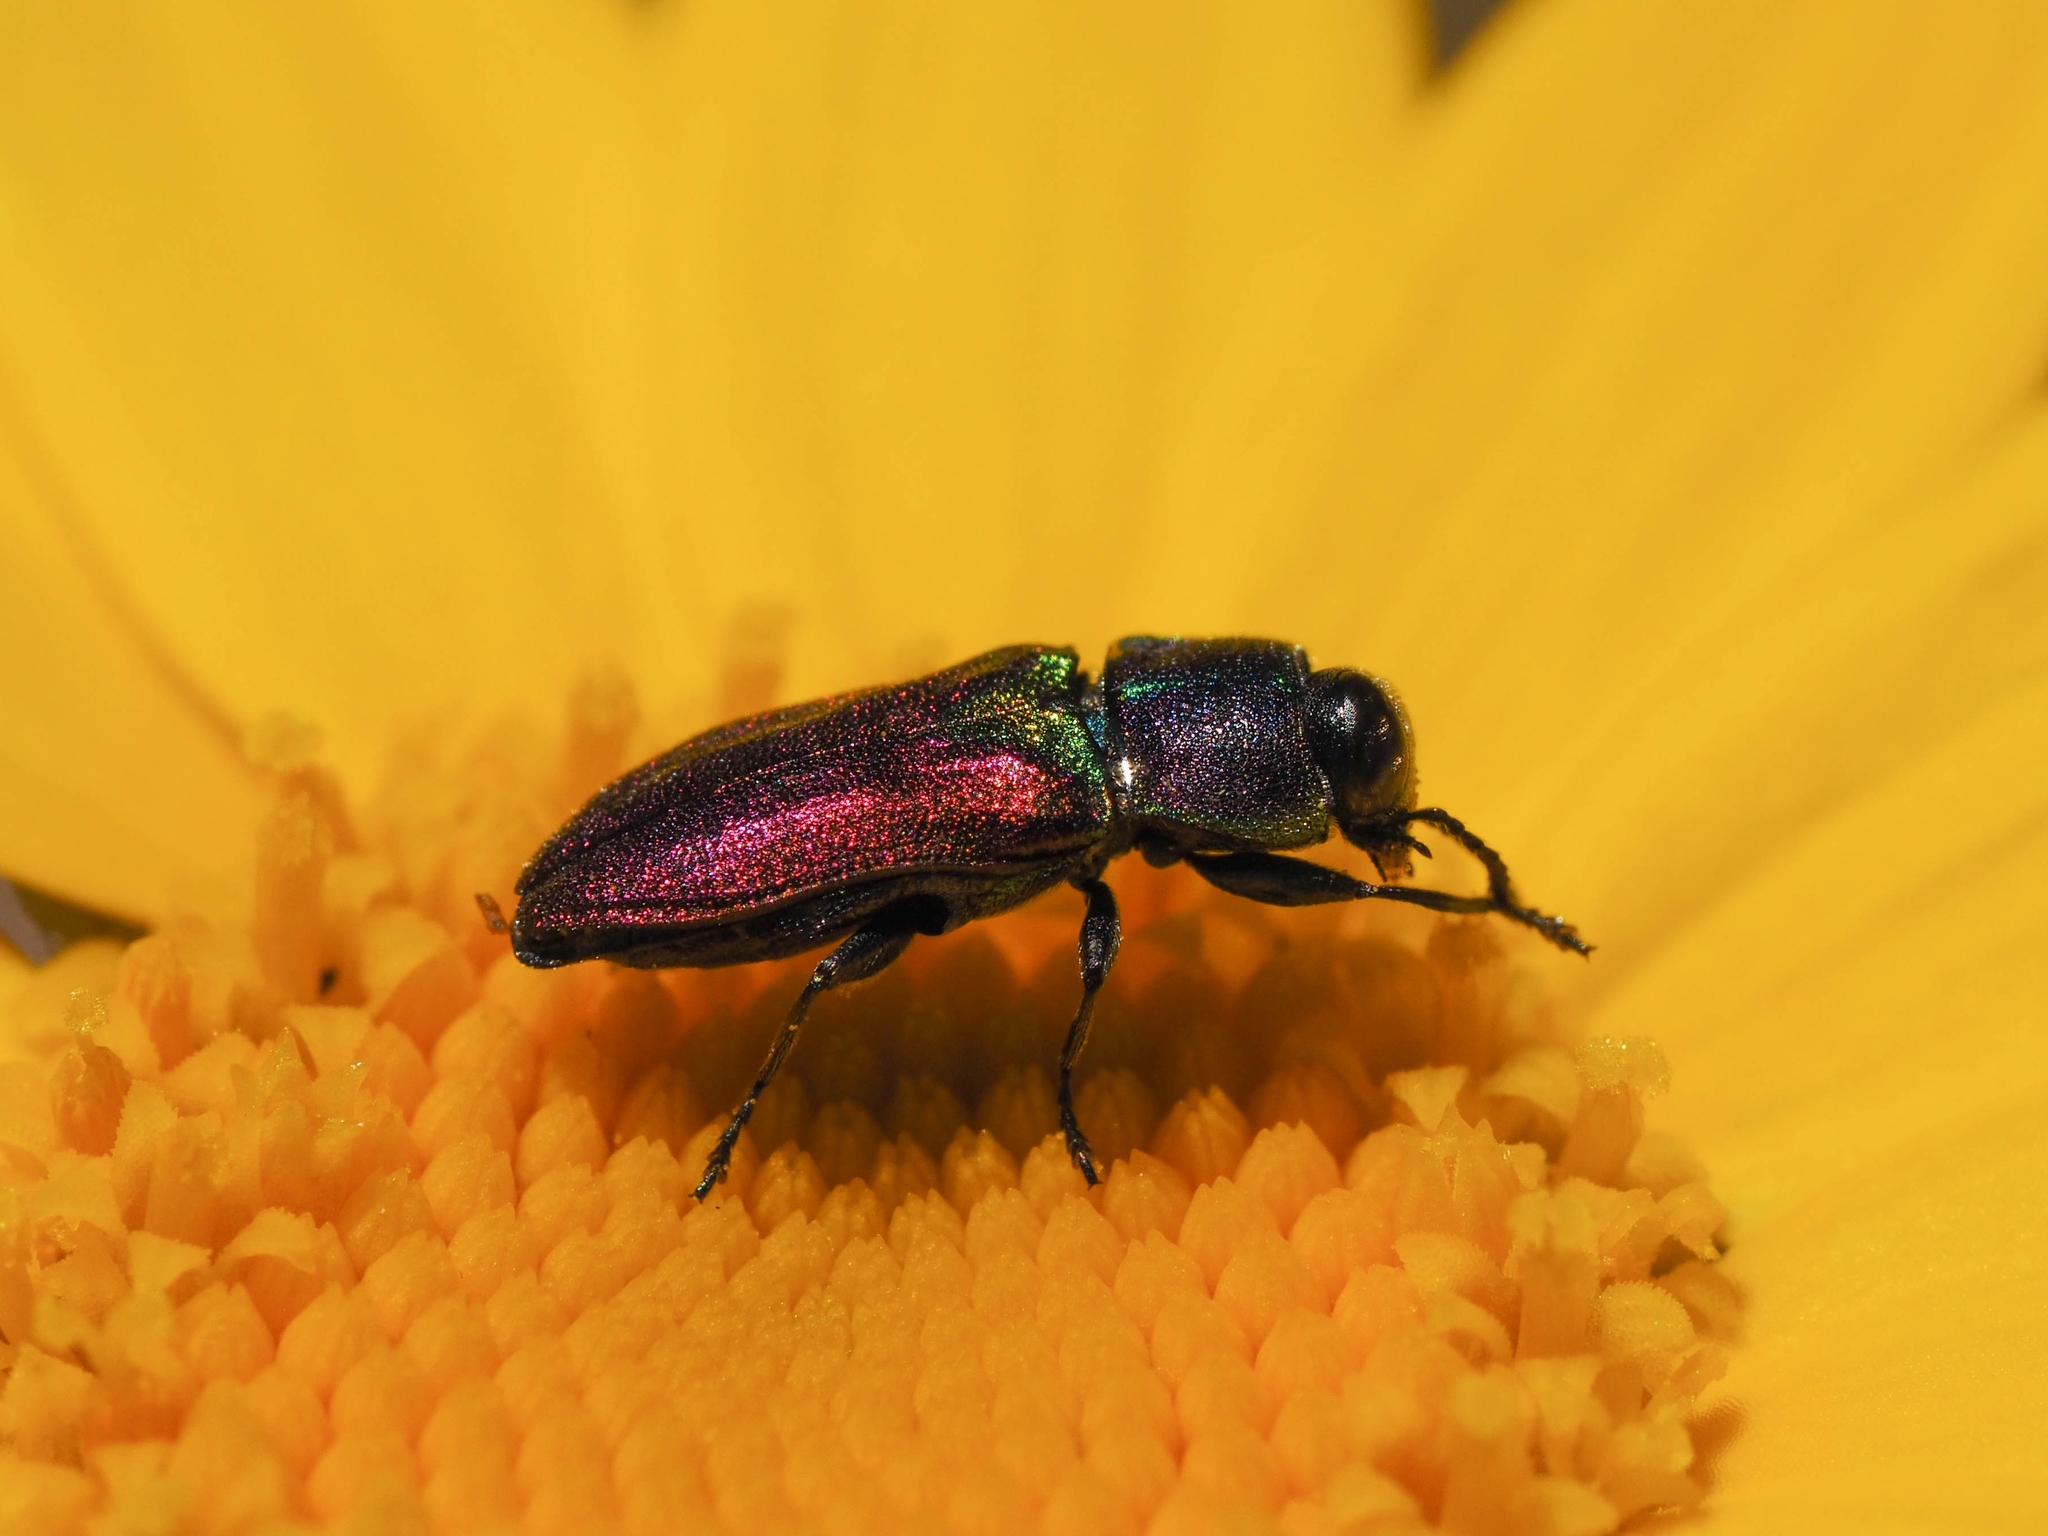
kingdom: Animalia
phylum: Arthropoda
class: Insecta
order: Coleoptera
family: Buprestidae
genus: Anthaxia
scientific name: Anthaxia salicis
